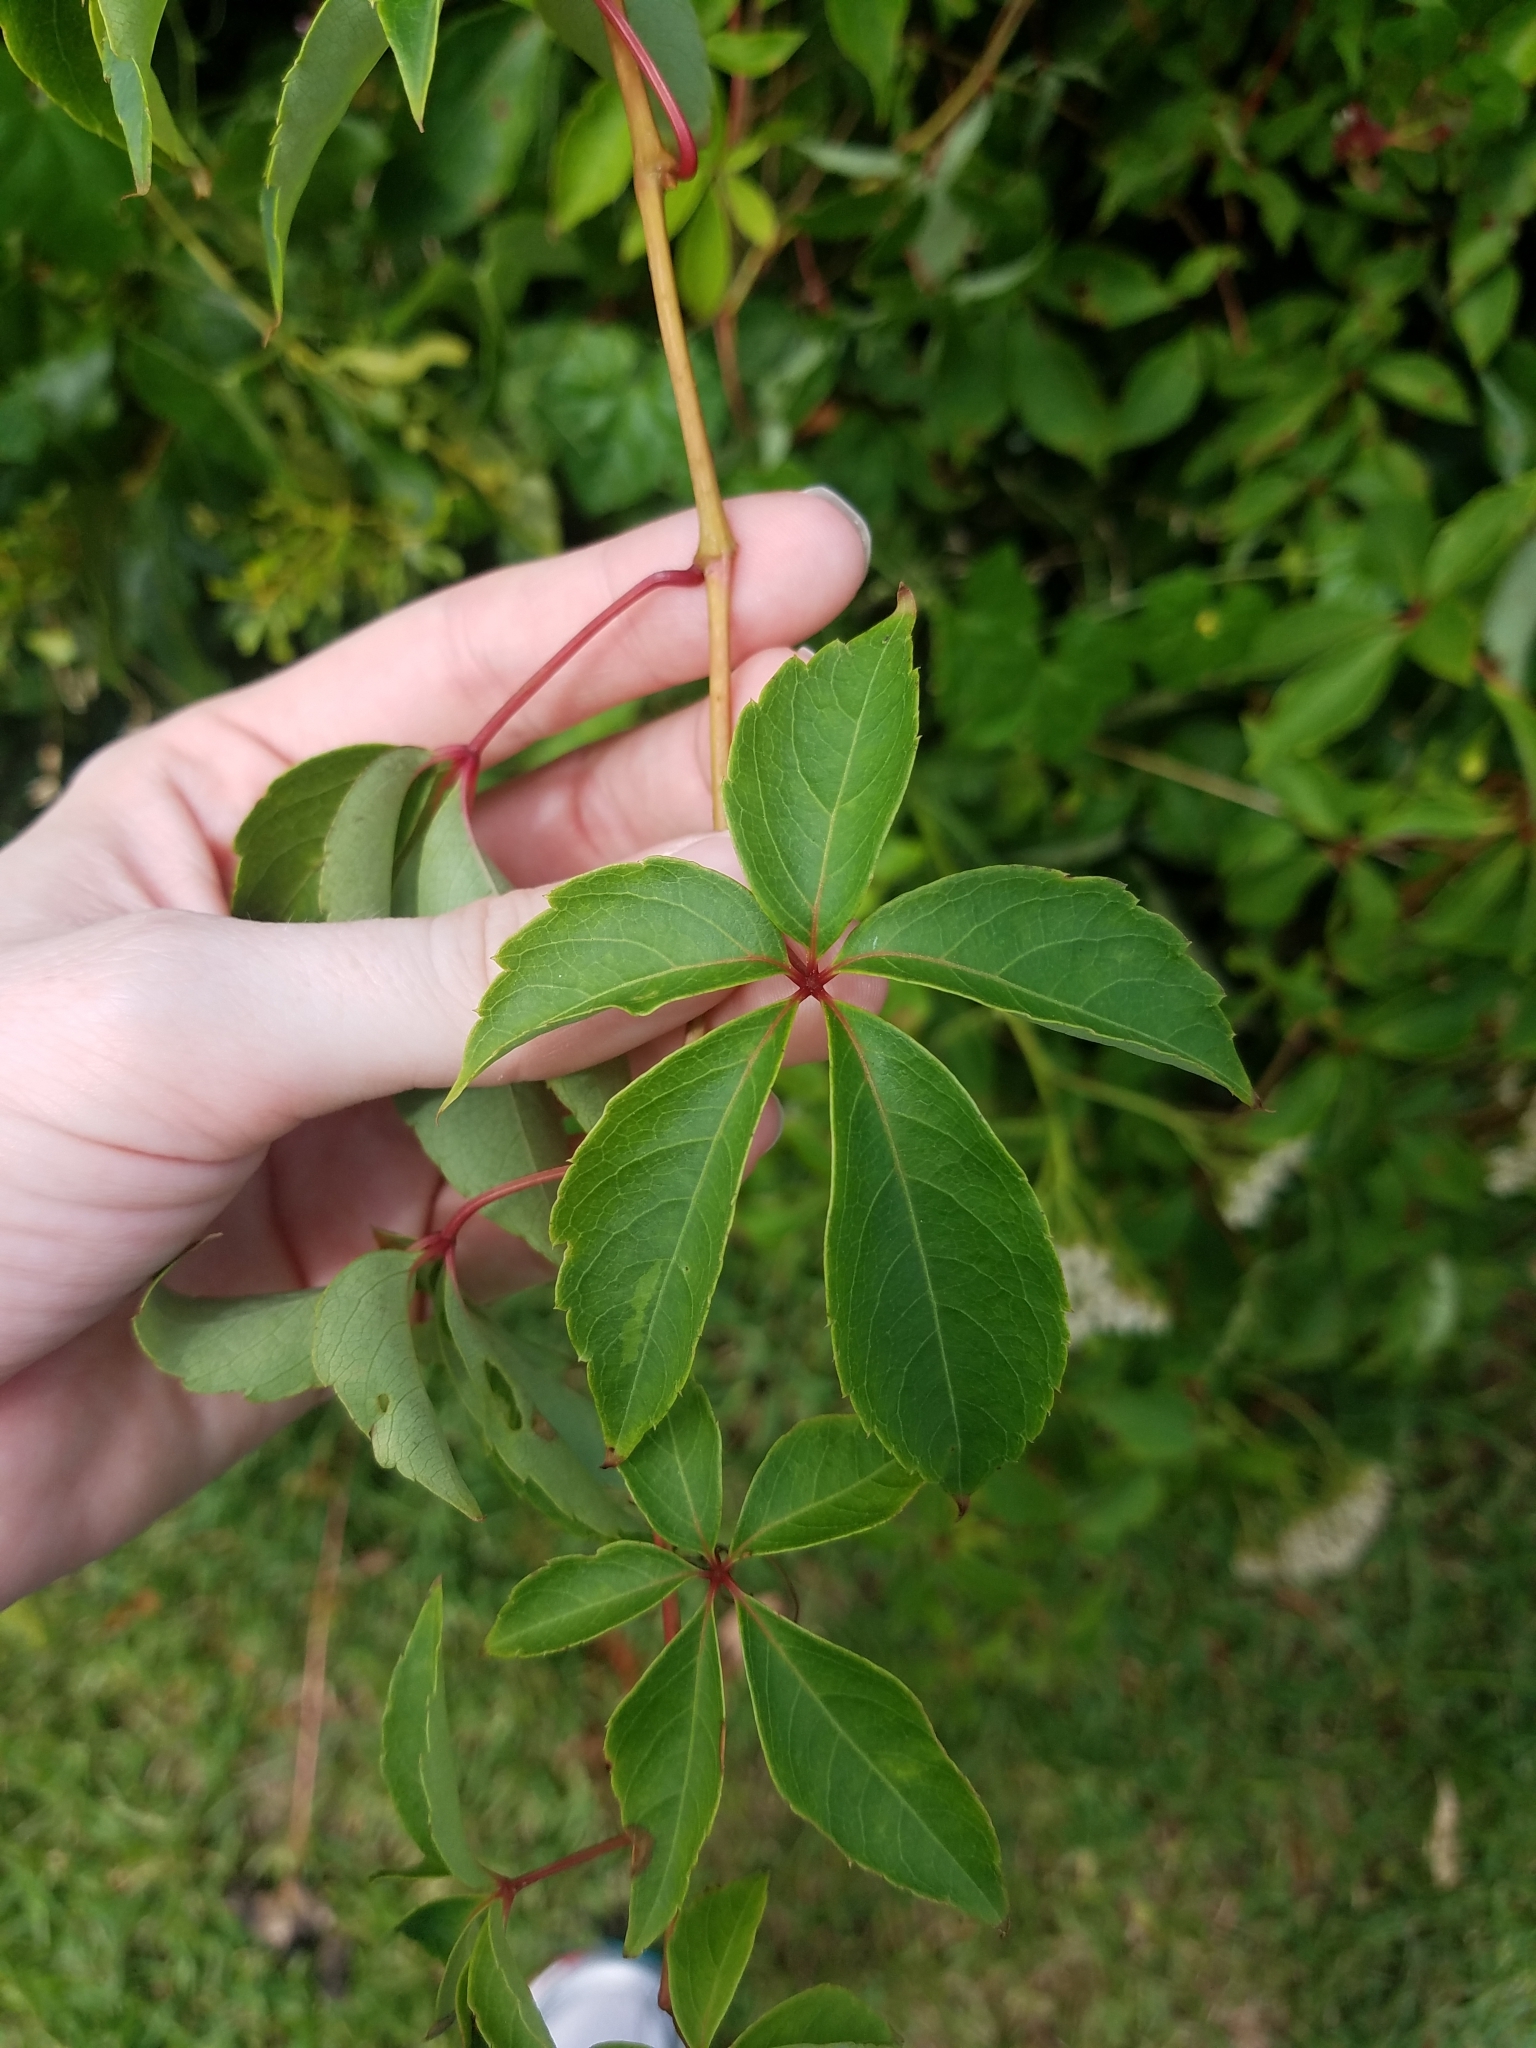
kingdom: Plantae
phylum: Tracheophyta
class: Magnoliopsida
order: Vitales
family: Vitaceae
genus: Parthenocissus
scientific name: Parthenocissus quinquefolia
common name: Virginia-creeper
